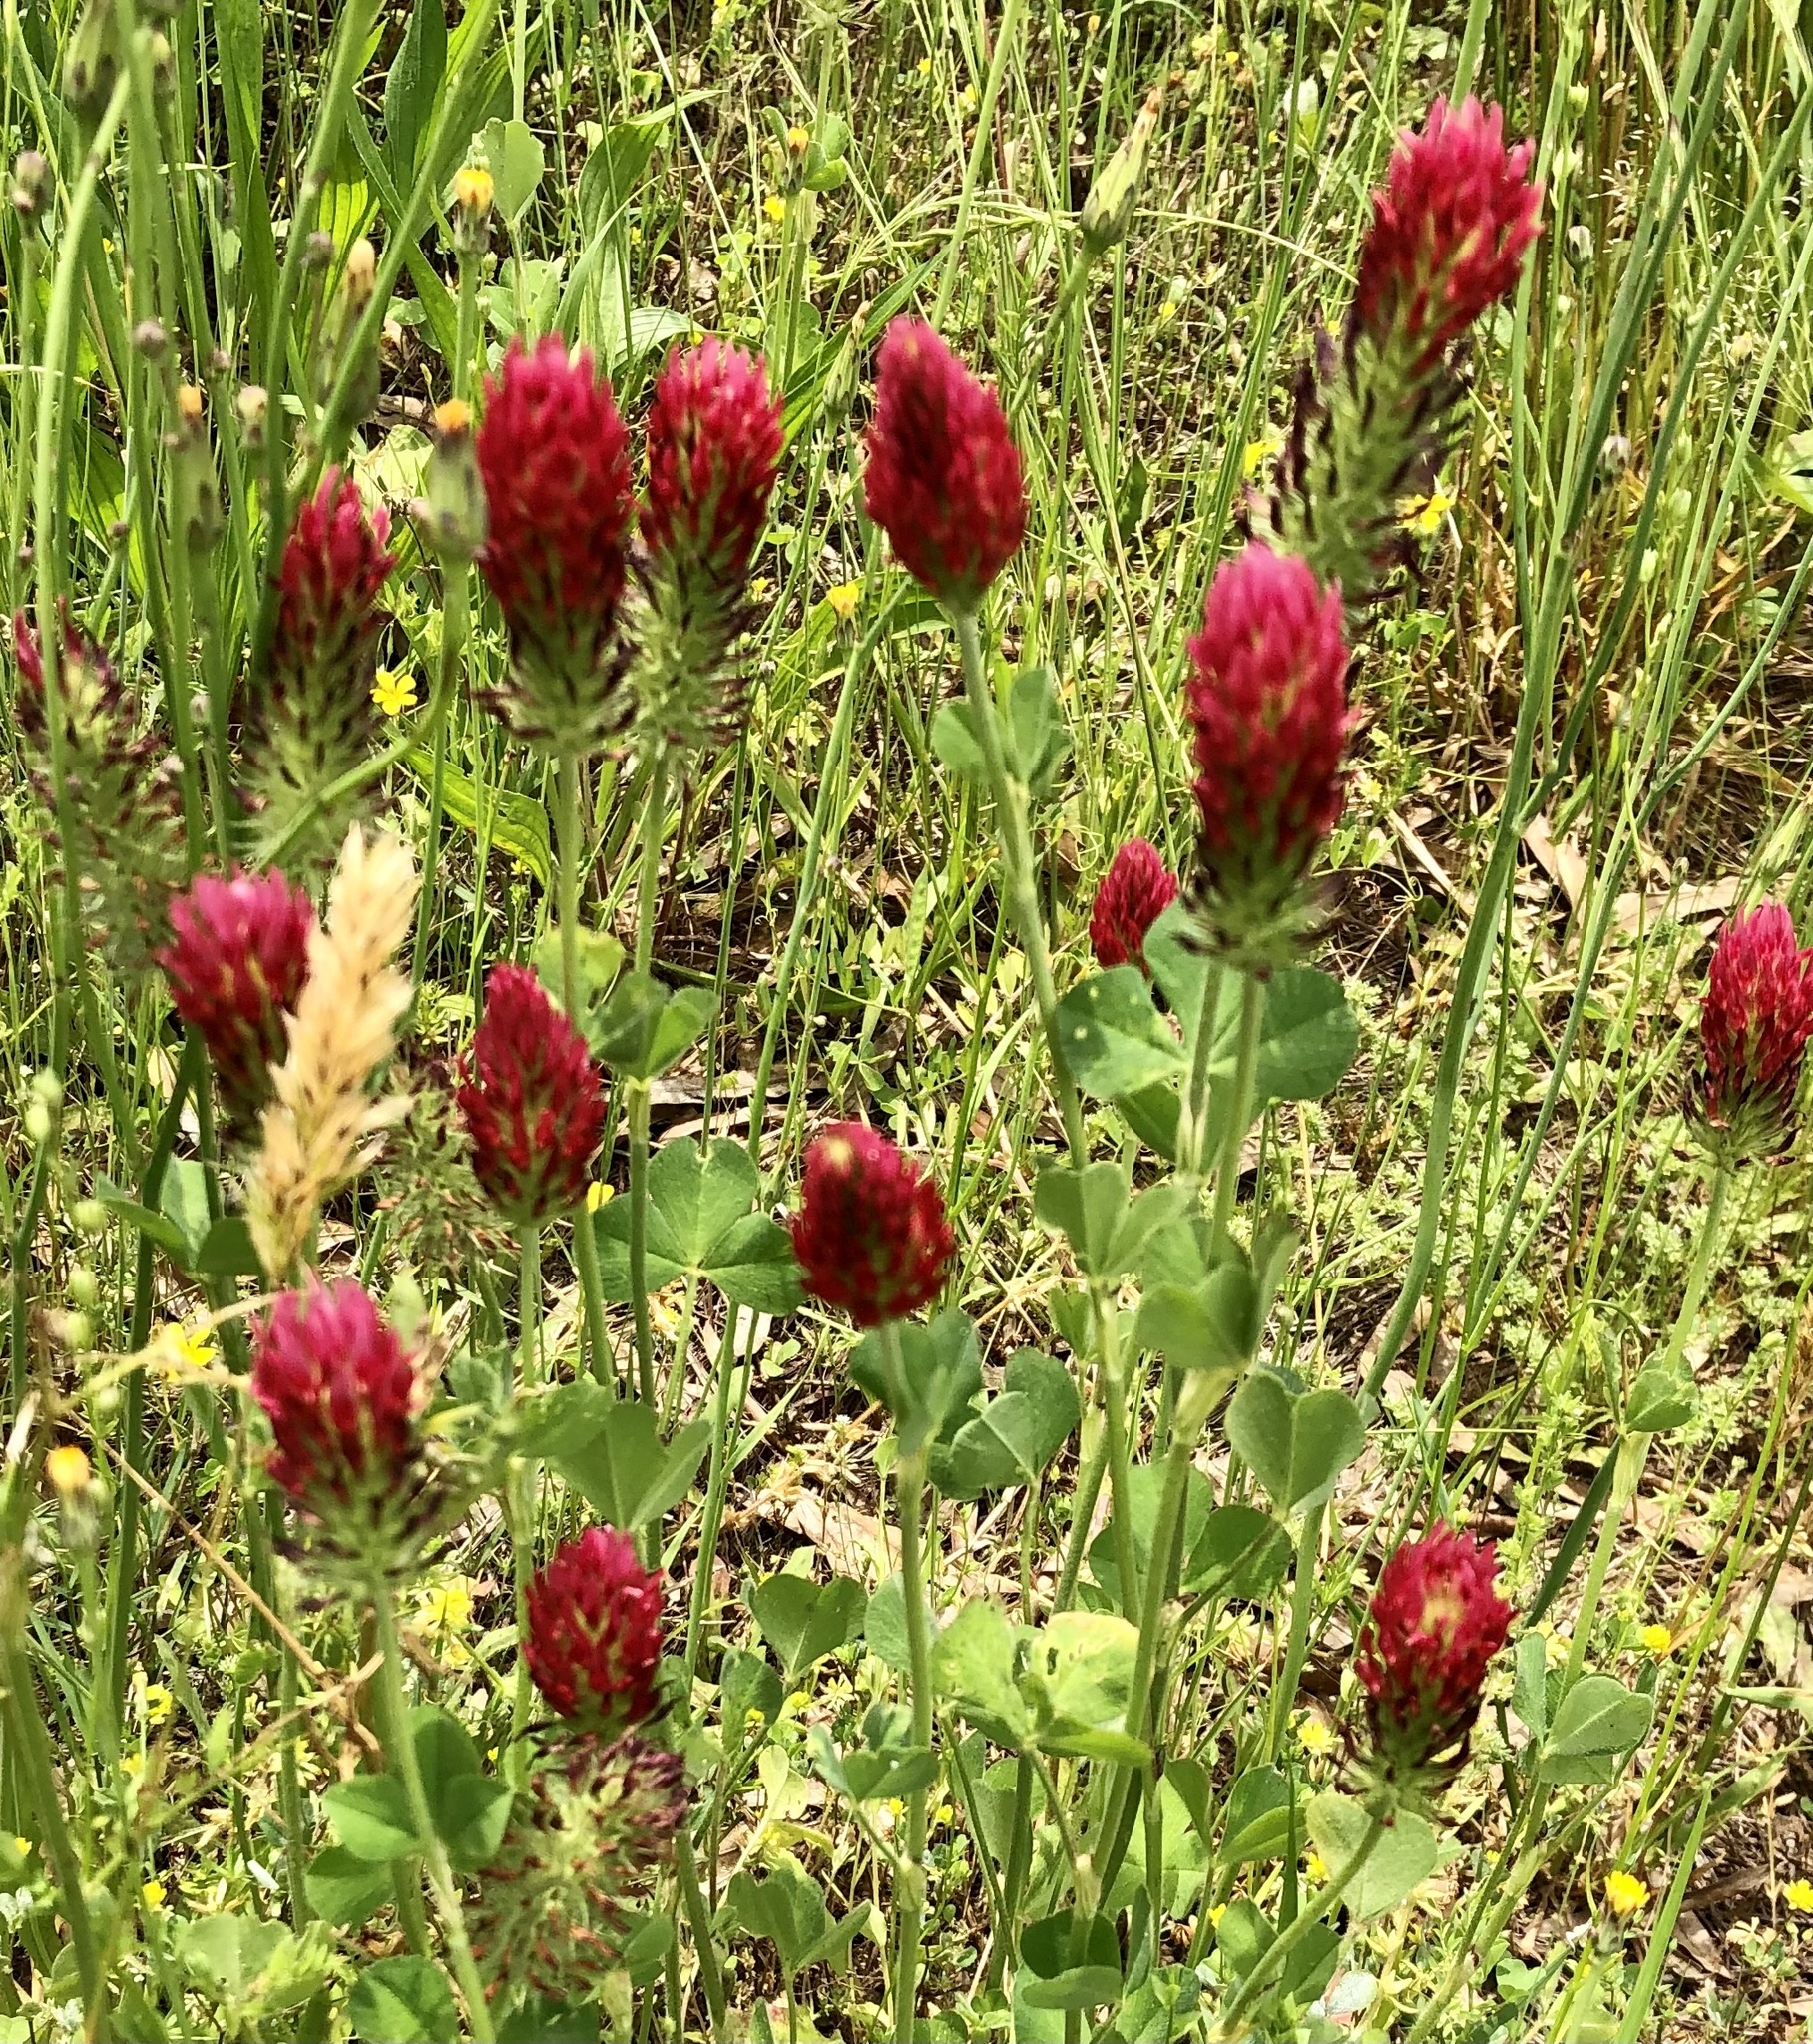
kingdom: Plantae
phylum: Tracheophyta
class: Magnoliopsida
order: Fabales
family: Fabaceae
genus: Trifolium
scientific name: Trifolium incarnatum
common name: Crimson clover
